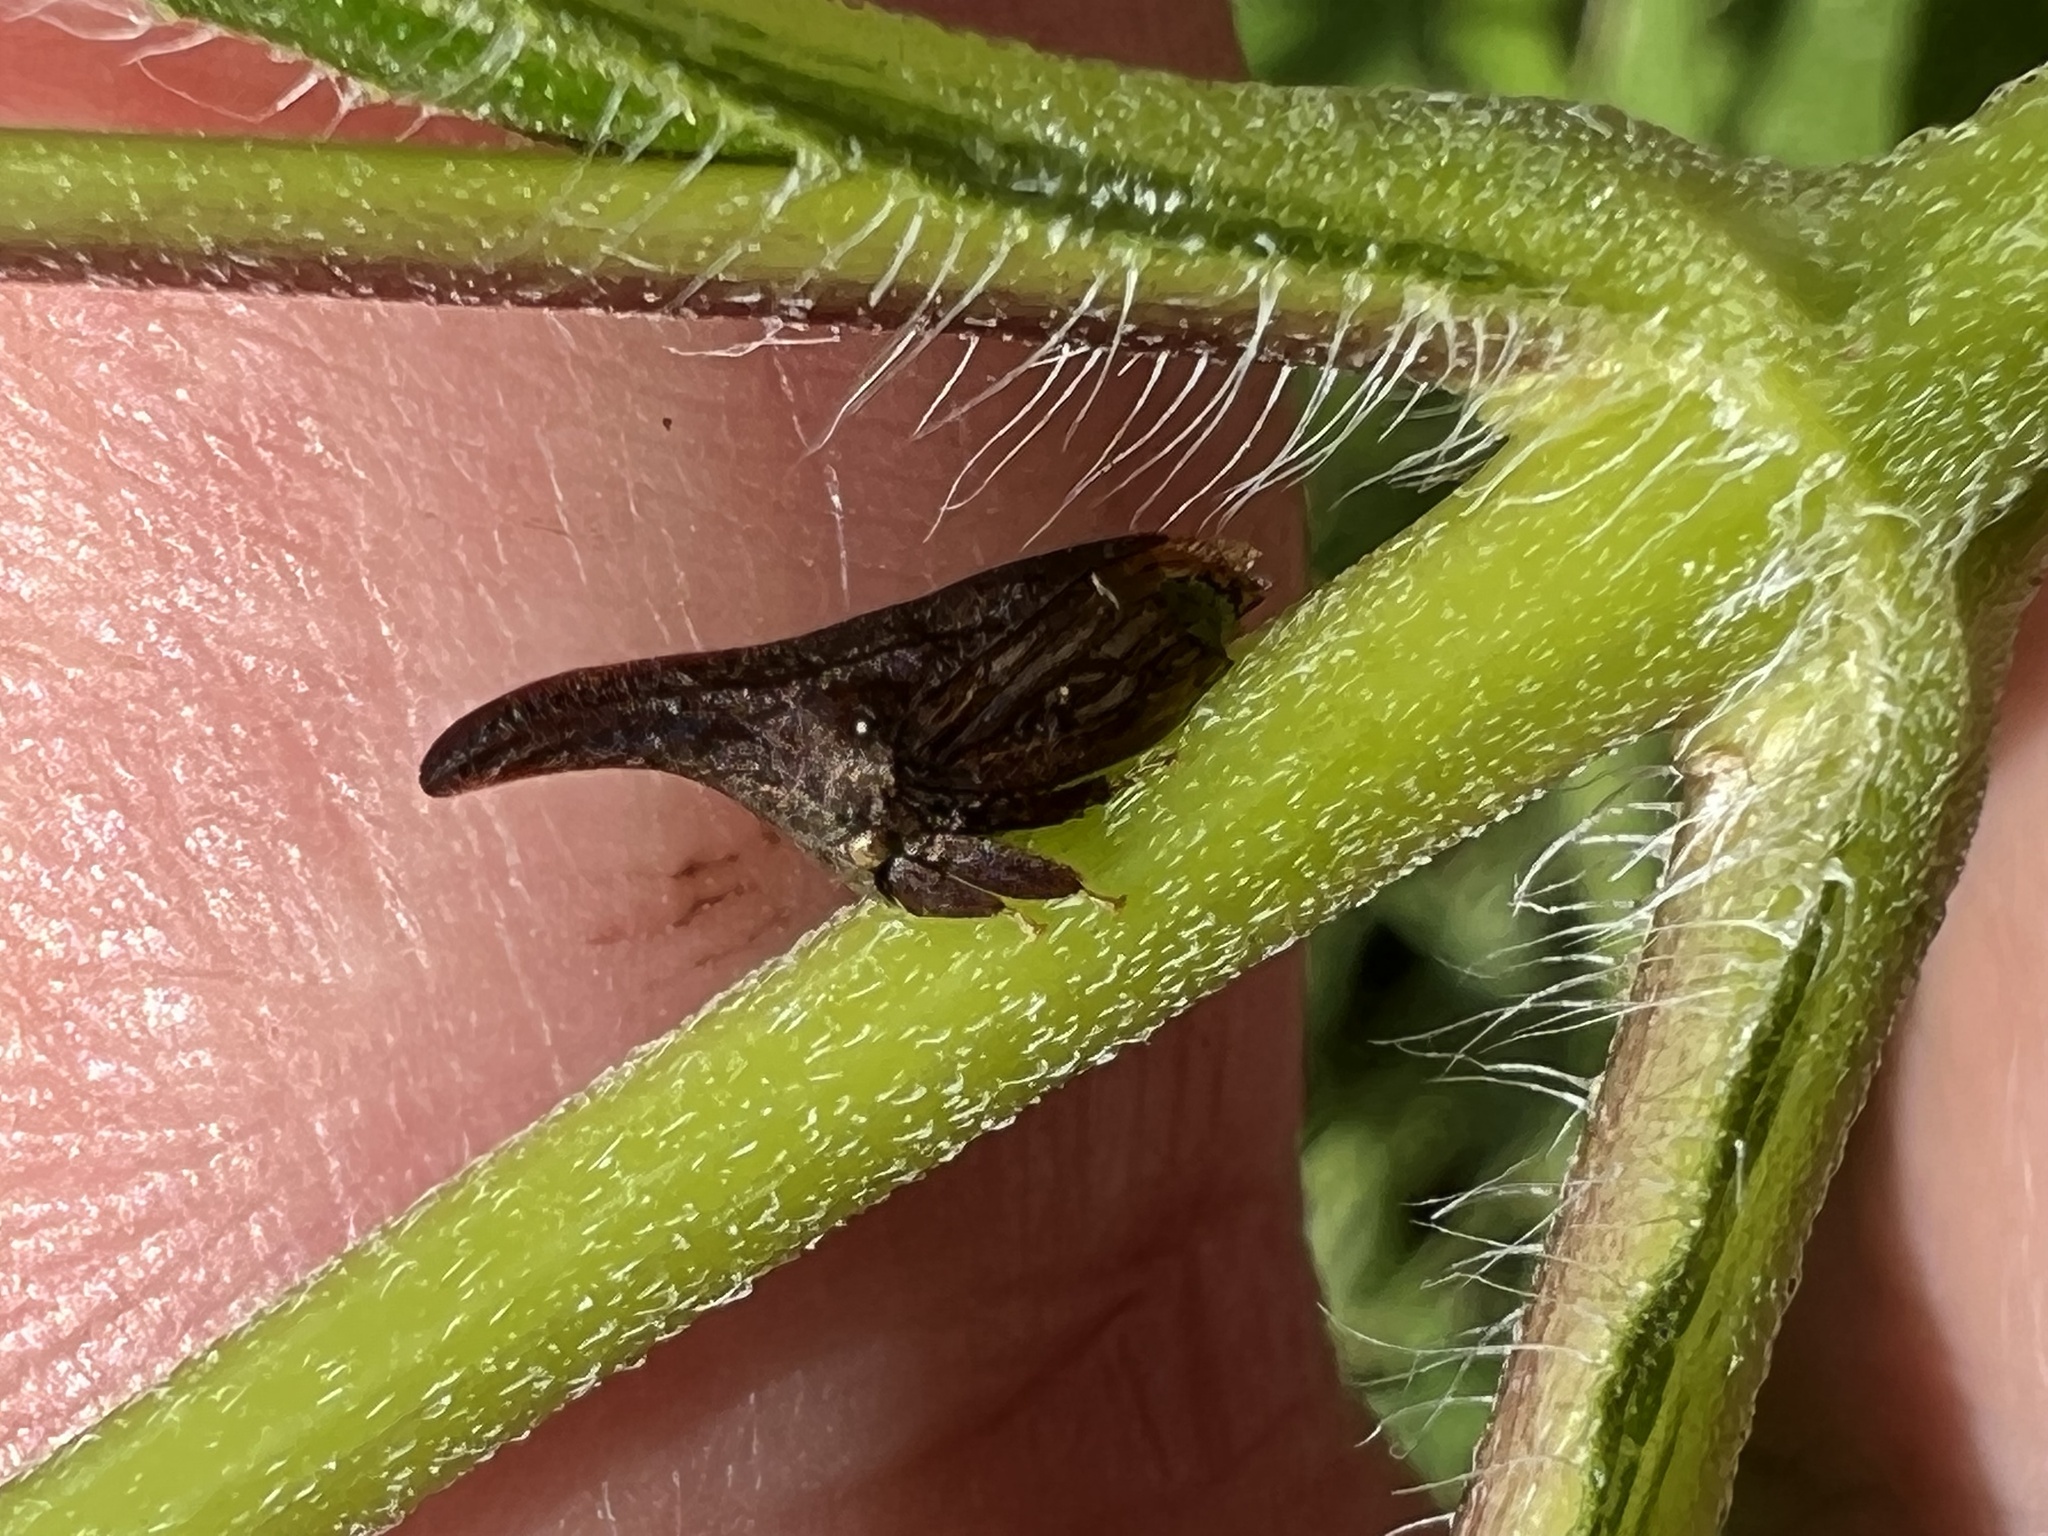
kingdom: Animalia
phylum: Arthropoda
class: Insecta
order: Hemiptera
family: Membracidae
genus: Enchenopa
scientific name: Enchenopa latipes
